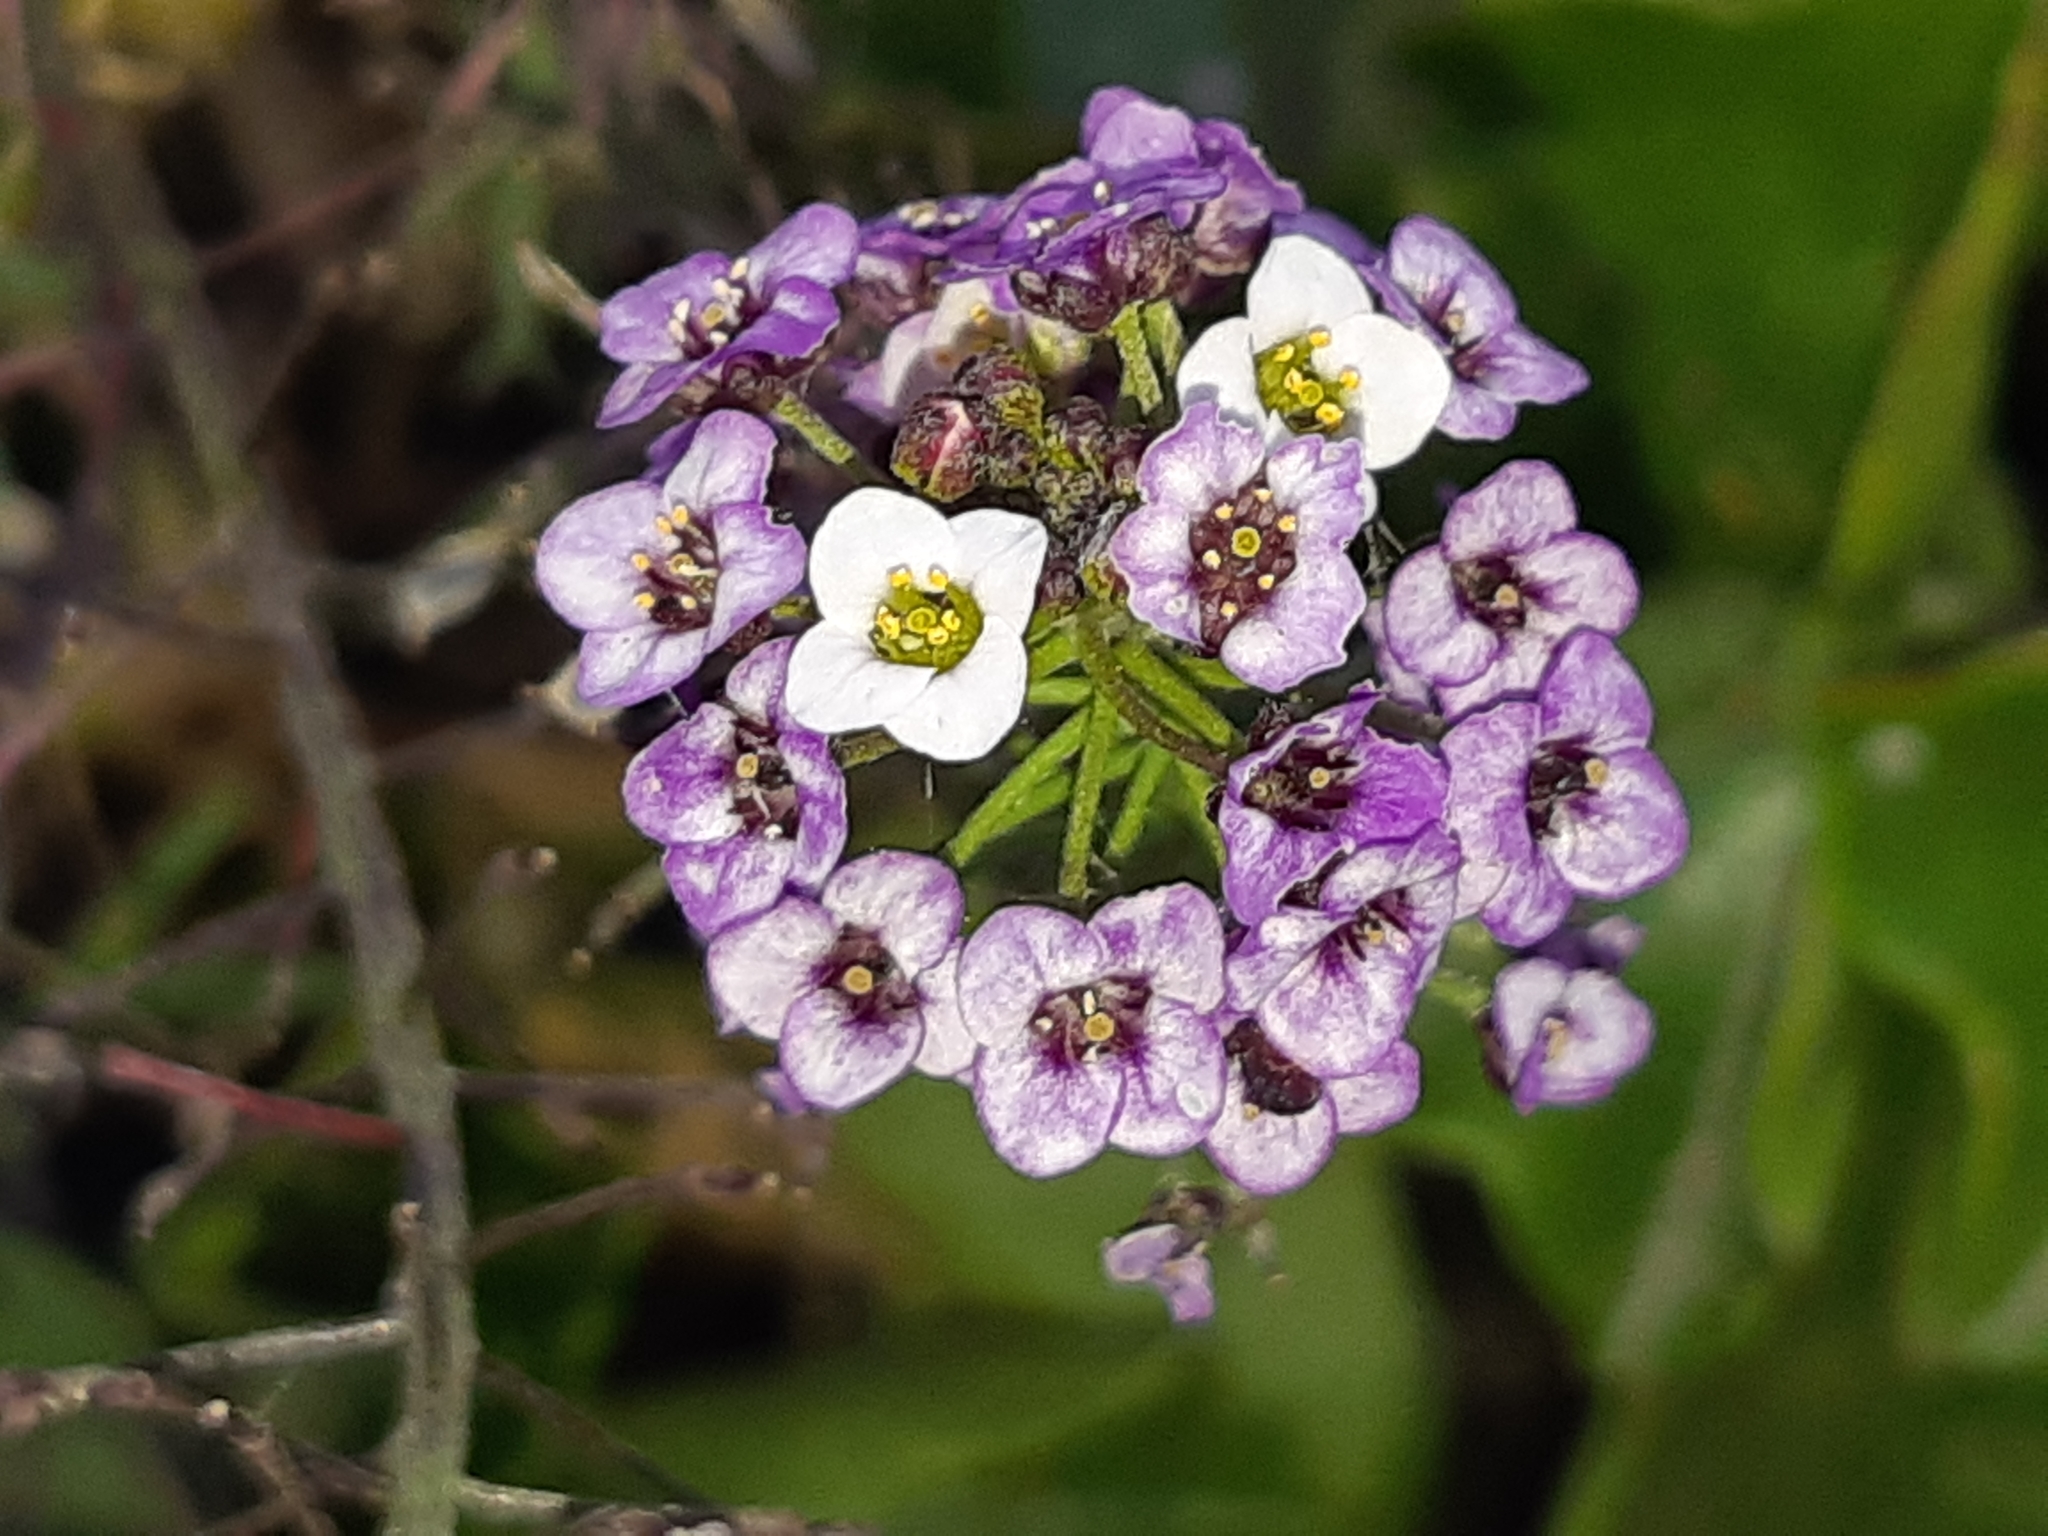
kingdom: Plantae
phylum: Tracheophyta
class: Magnoliopsida
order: Brassicales
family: Brassicaceae
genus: Lobularia
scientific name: Lobularia maritima
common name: Sweet alison
